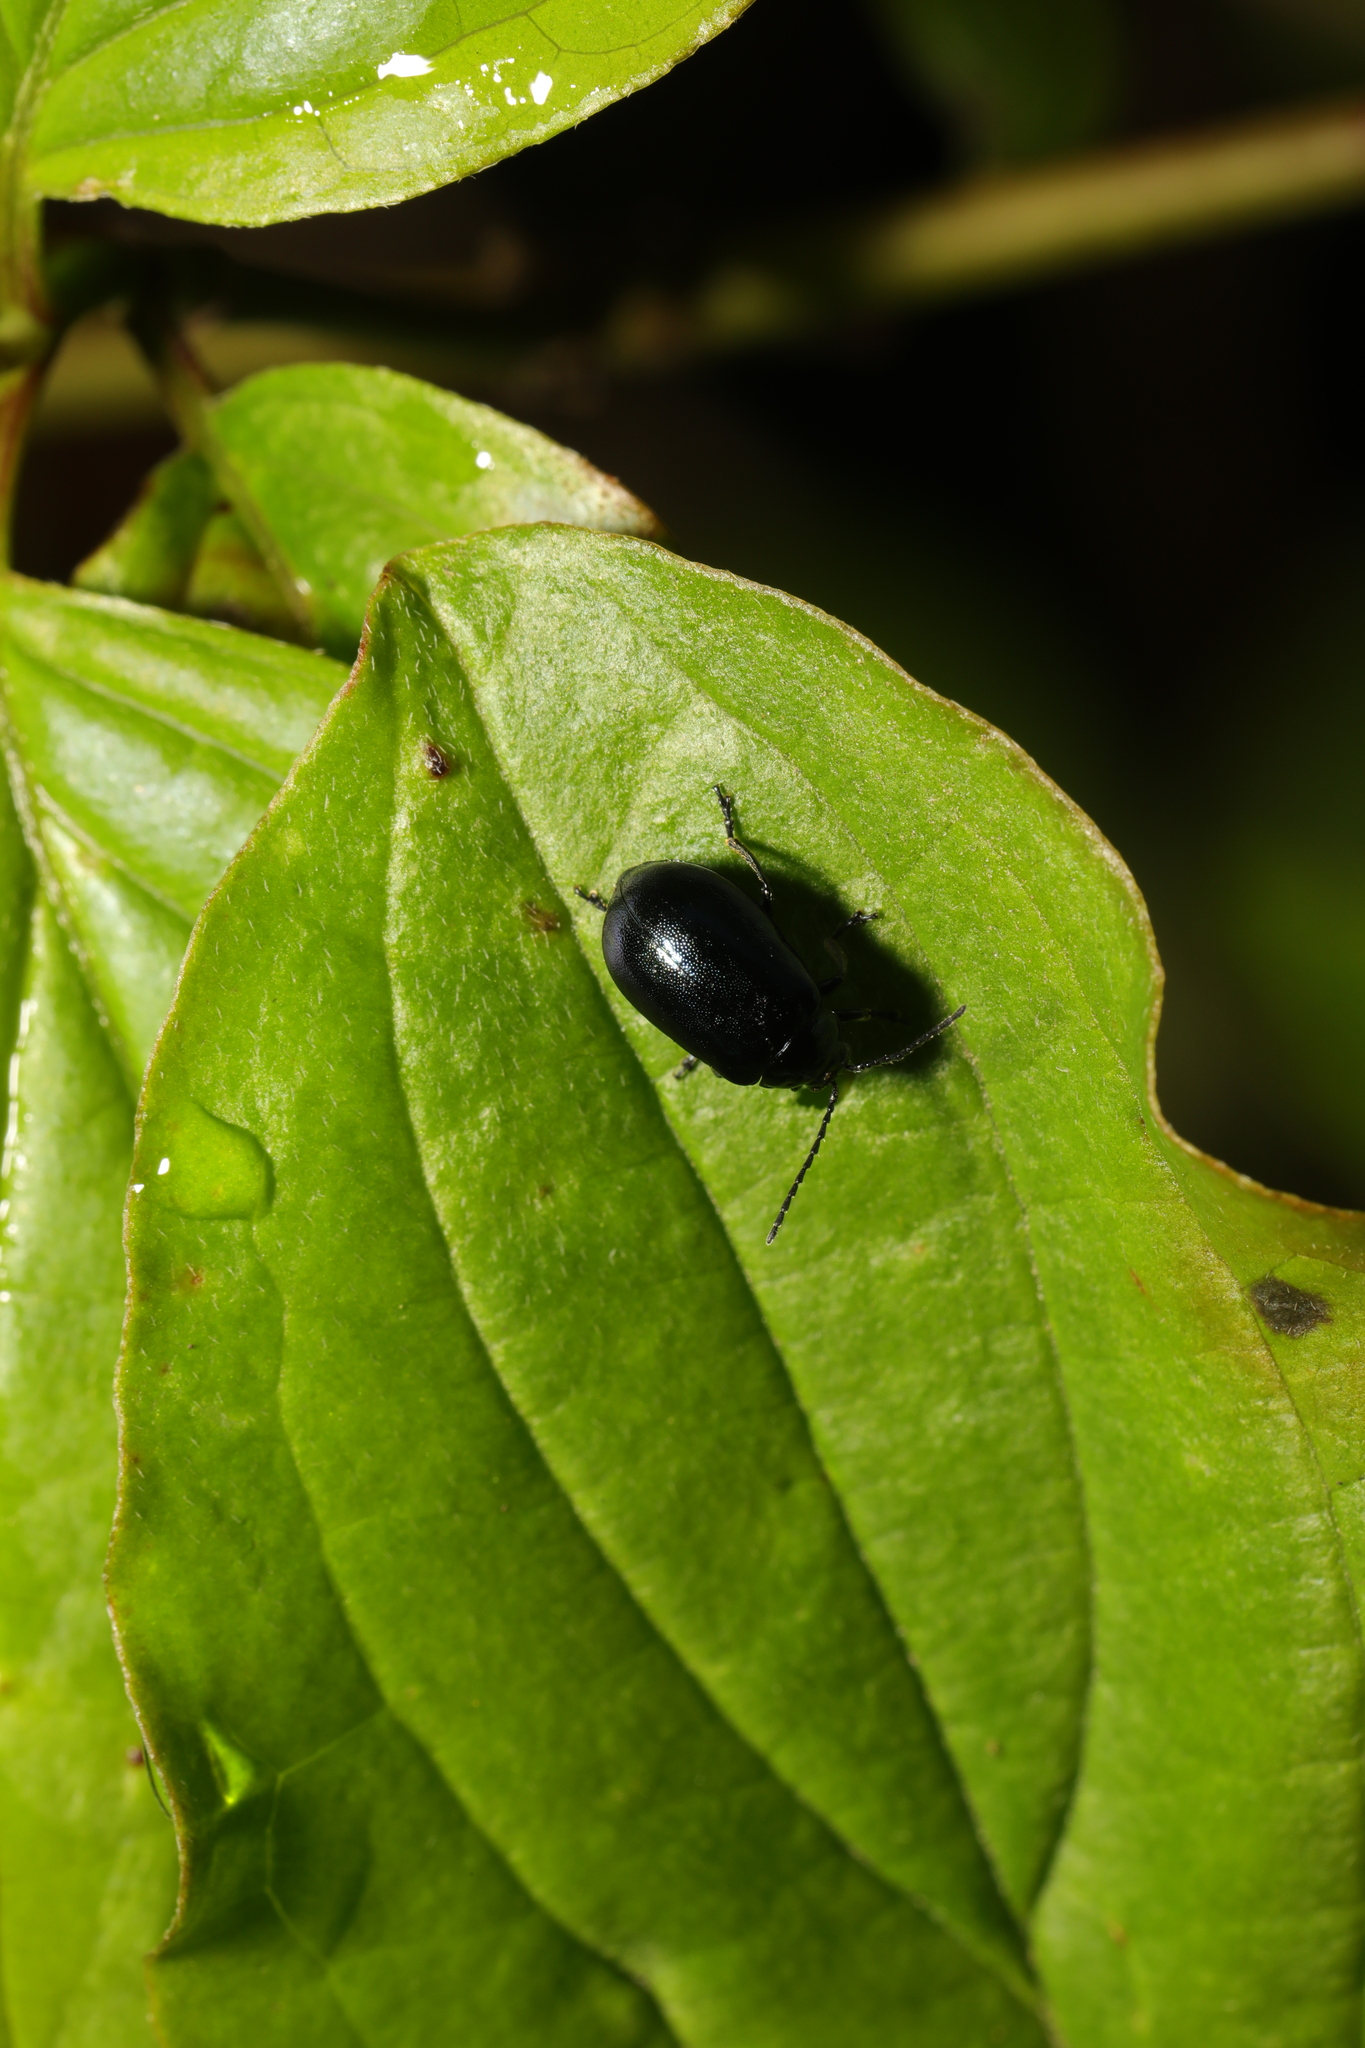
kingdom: Animalia
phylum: Arthropoda
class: Insecta
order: Coleoptera
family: Chrysomelidae
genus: Agelastica
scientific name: Agelastica alni
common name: Alder leaf beetle
